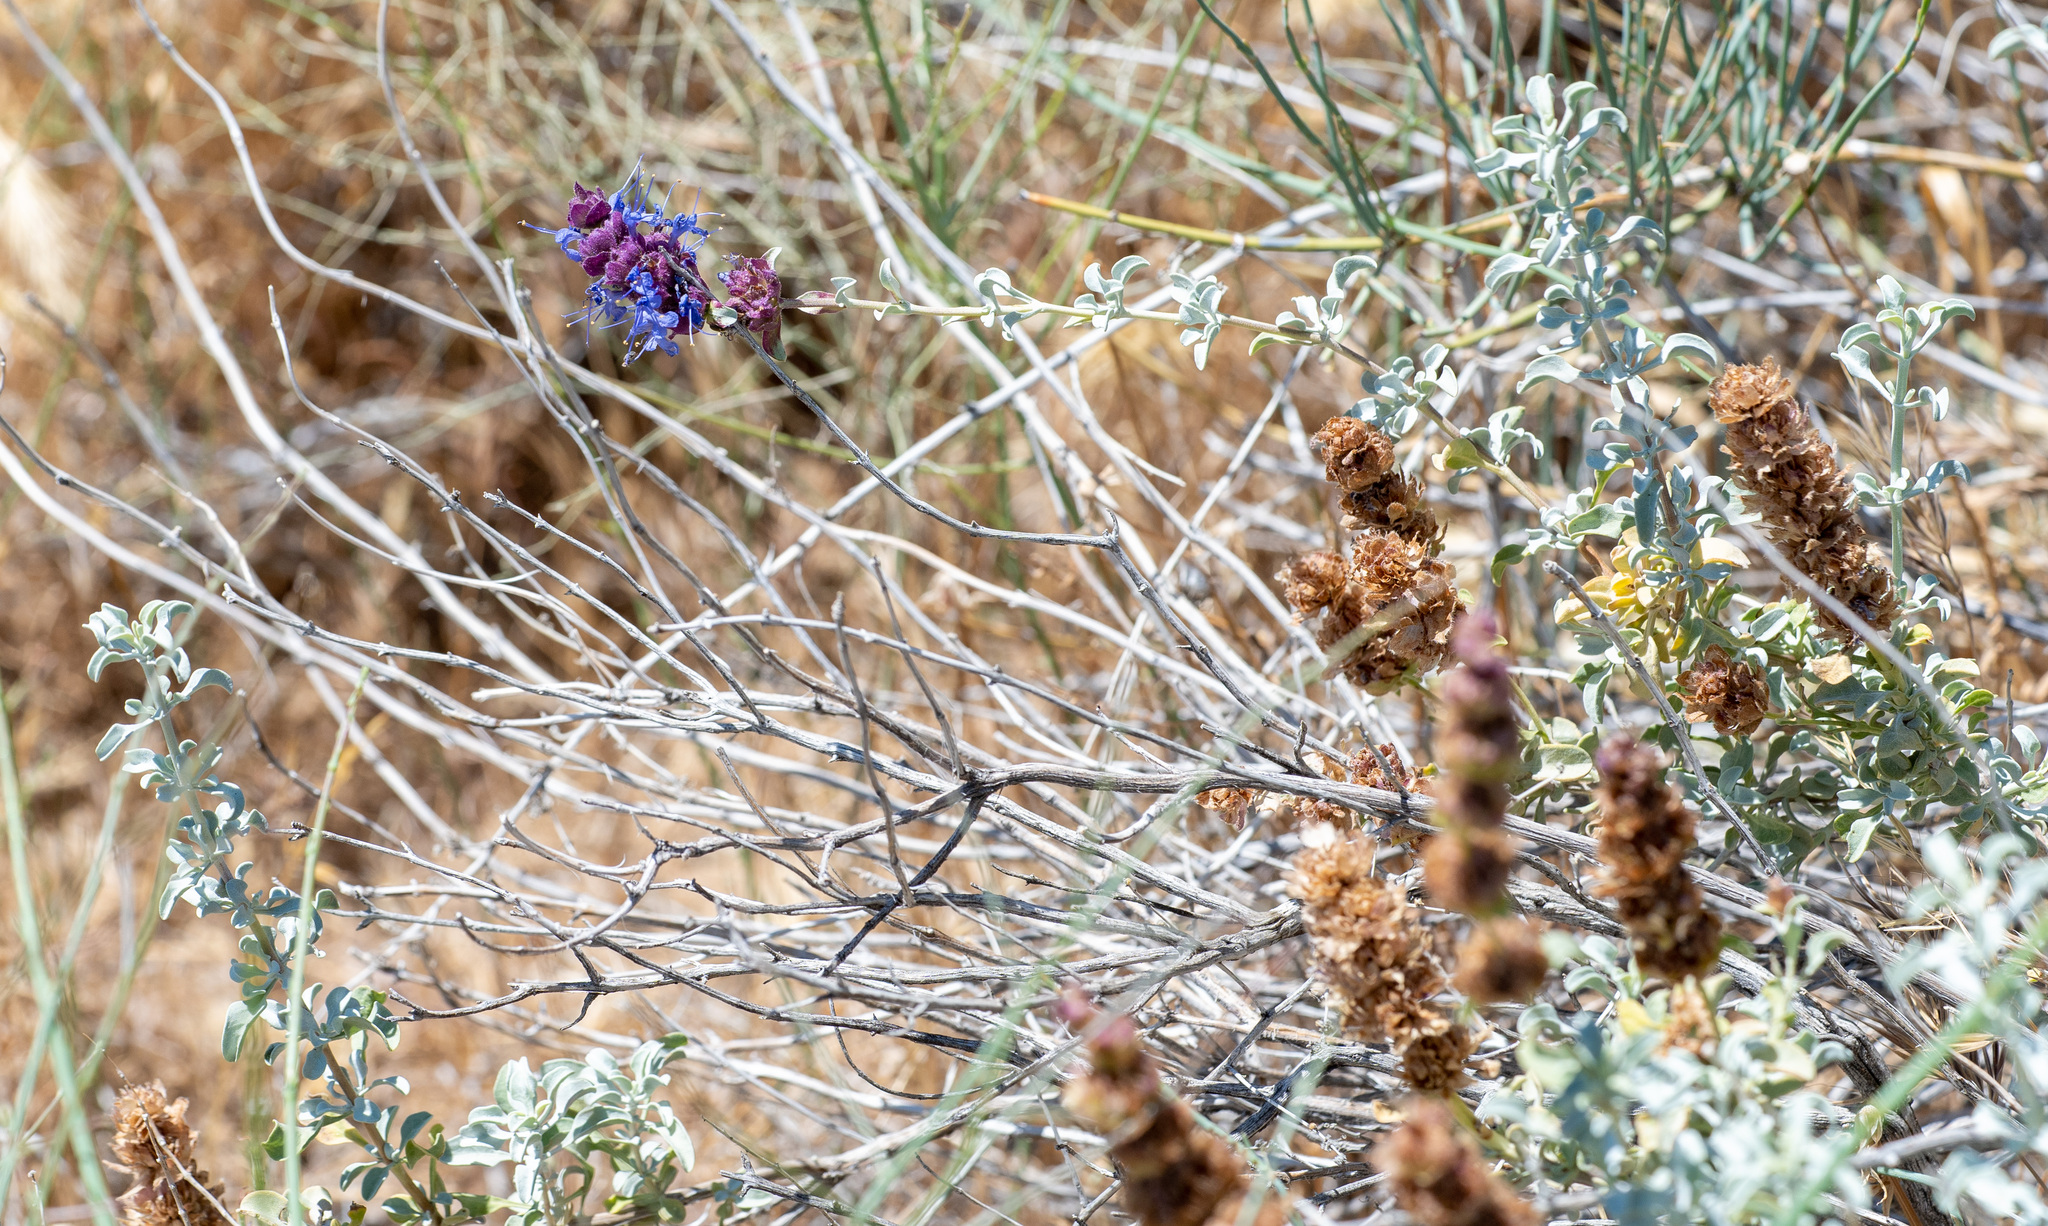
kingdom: Plantae
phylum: Tracheophyta
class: Magnoliopsida
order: Lamiales
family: Lamiaceae
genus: Salvia
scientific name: Salvia dorrii
